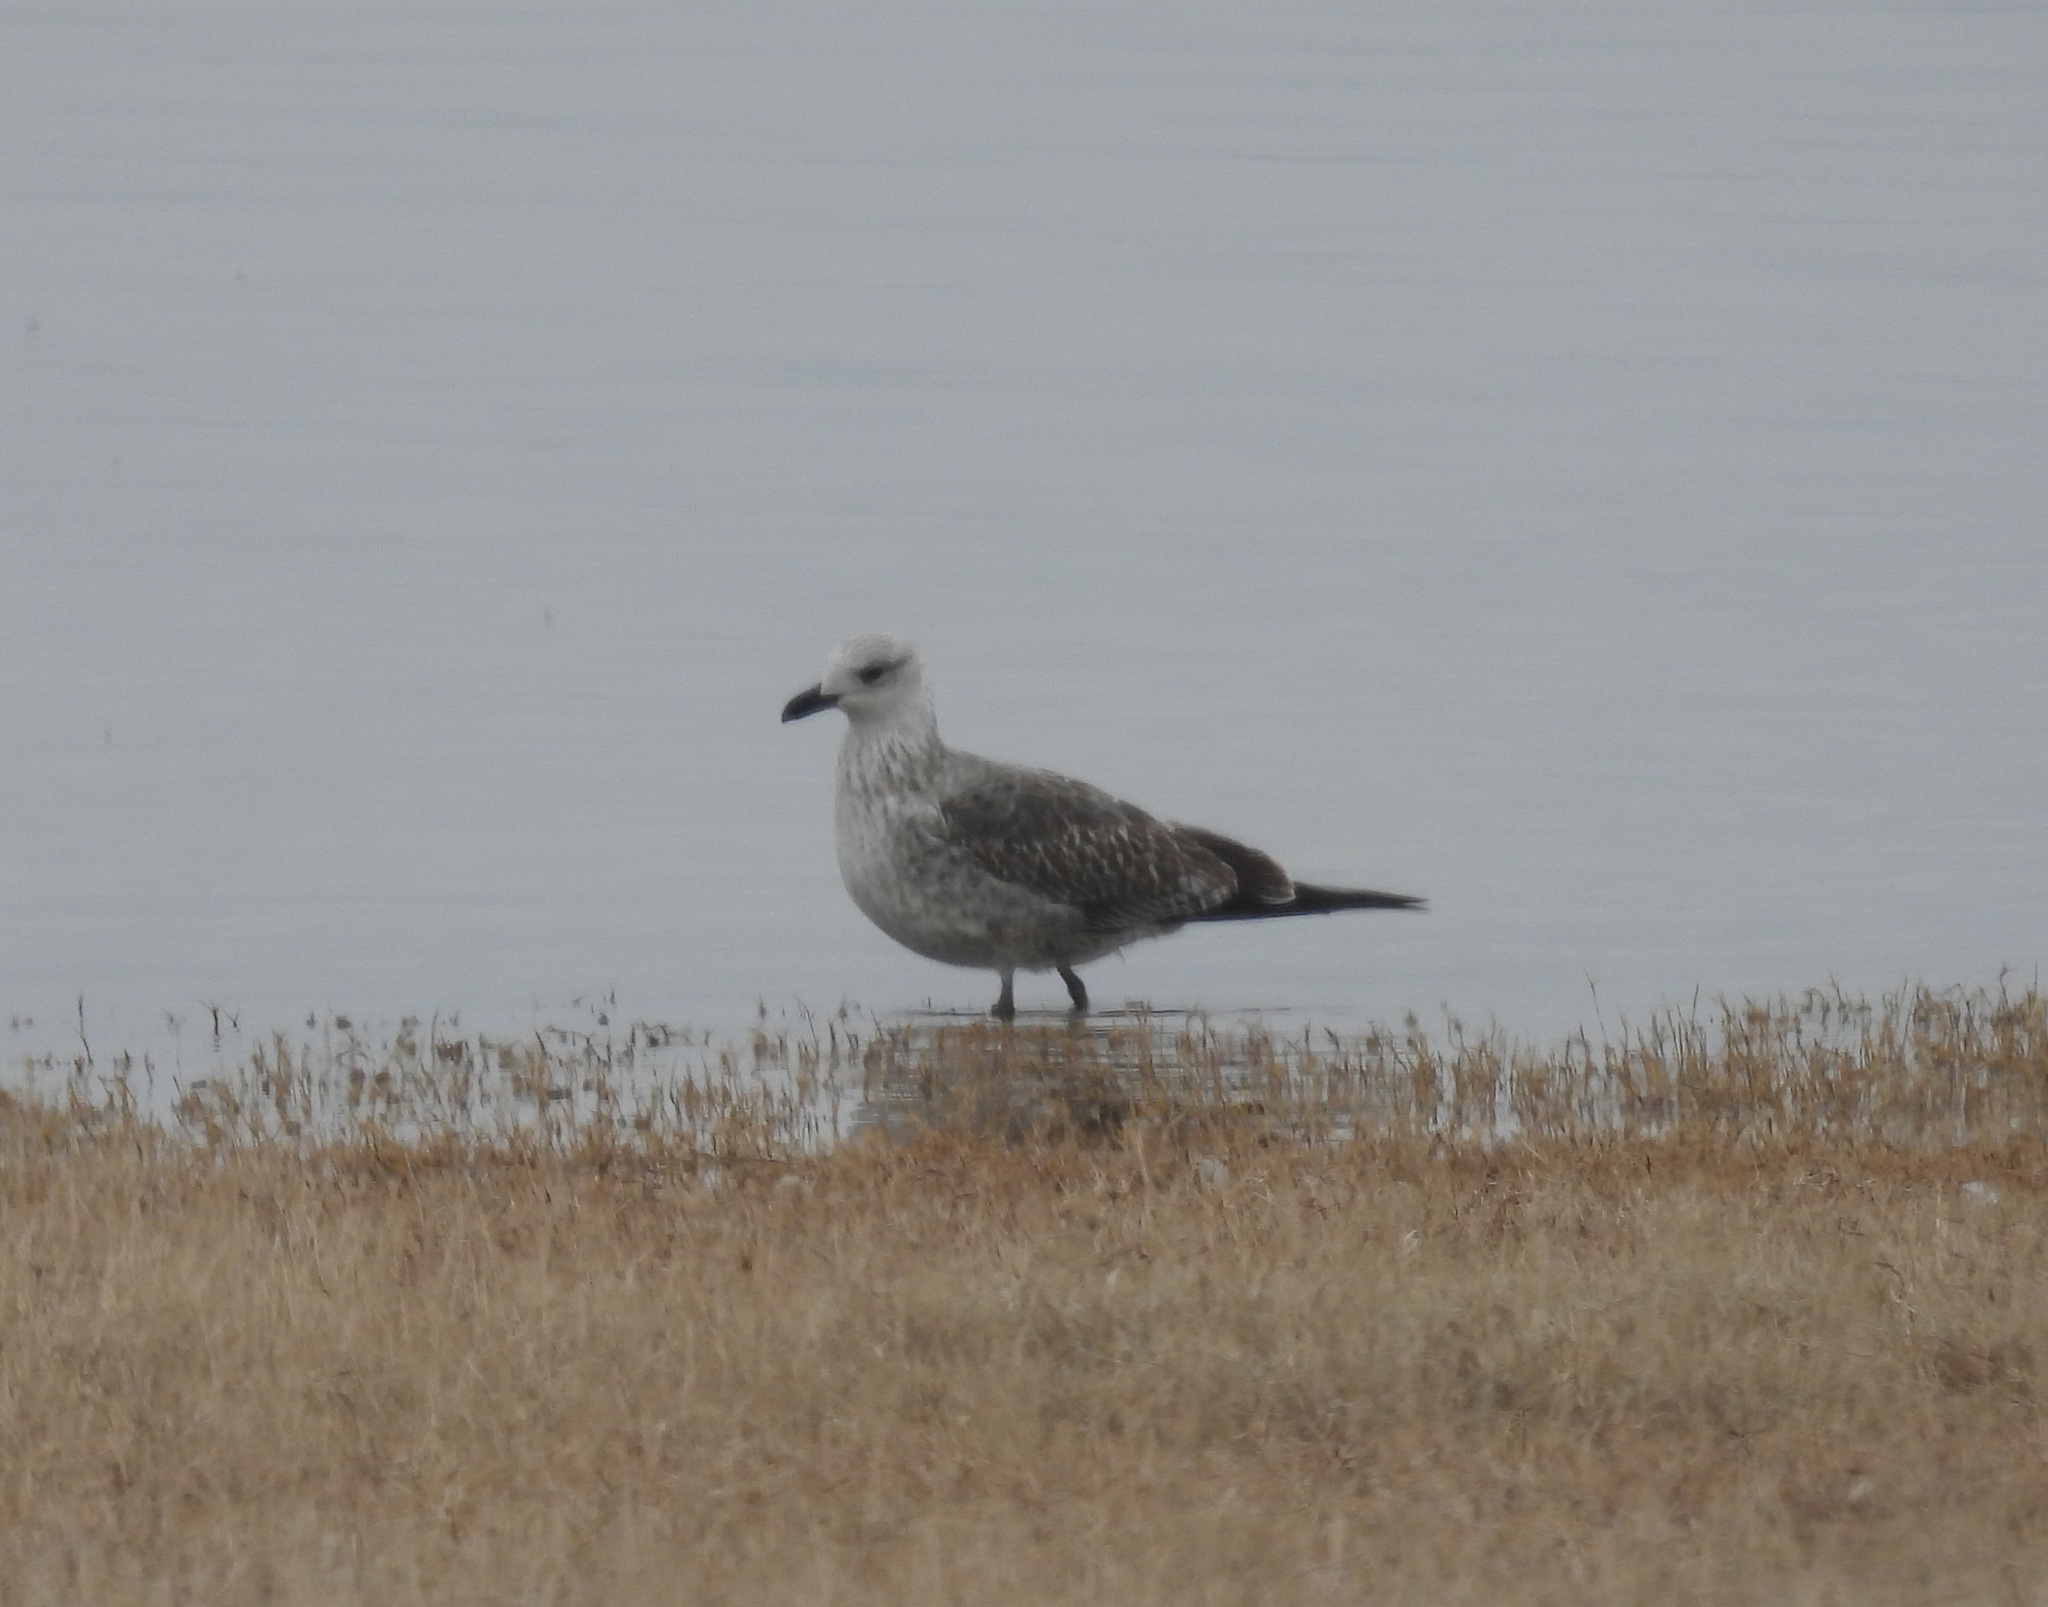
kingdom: Animalia
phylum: Chordata
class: Aves
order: Charadriiformes
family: Laridae
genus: Larus
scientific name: Larus fuscus
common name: Lesser black-backed gull
